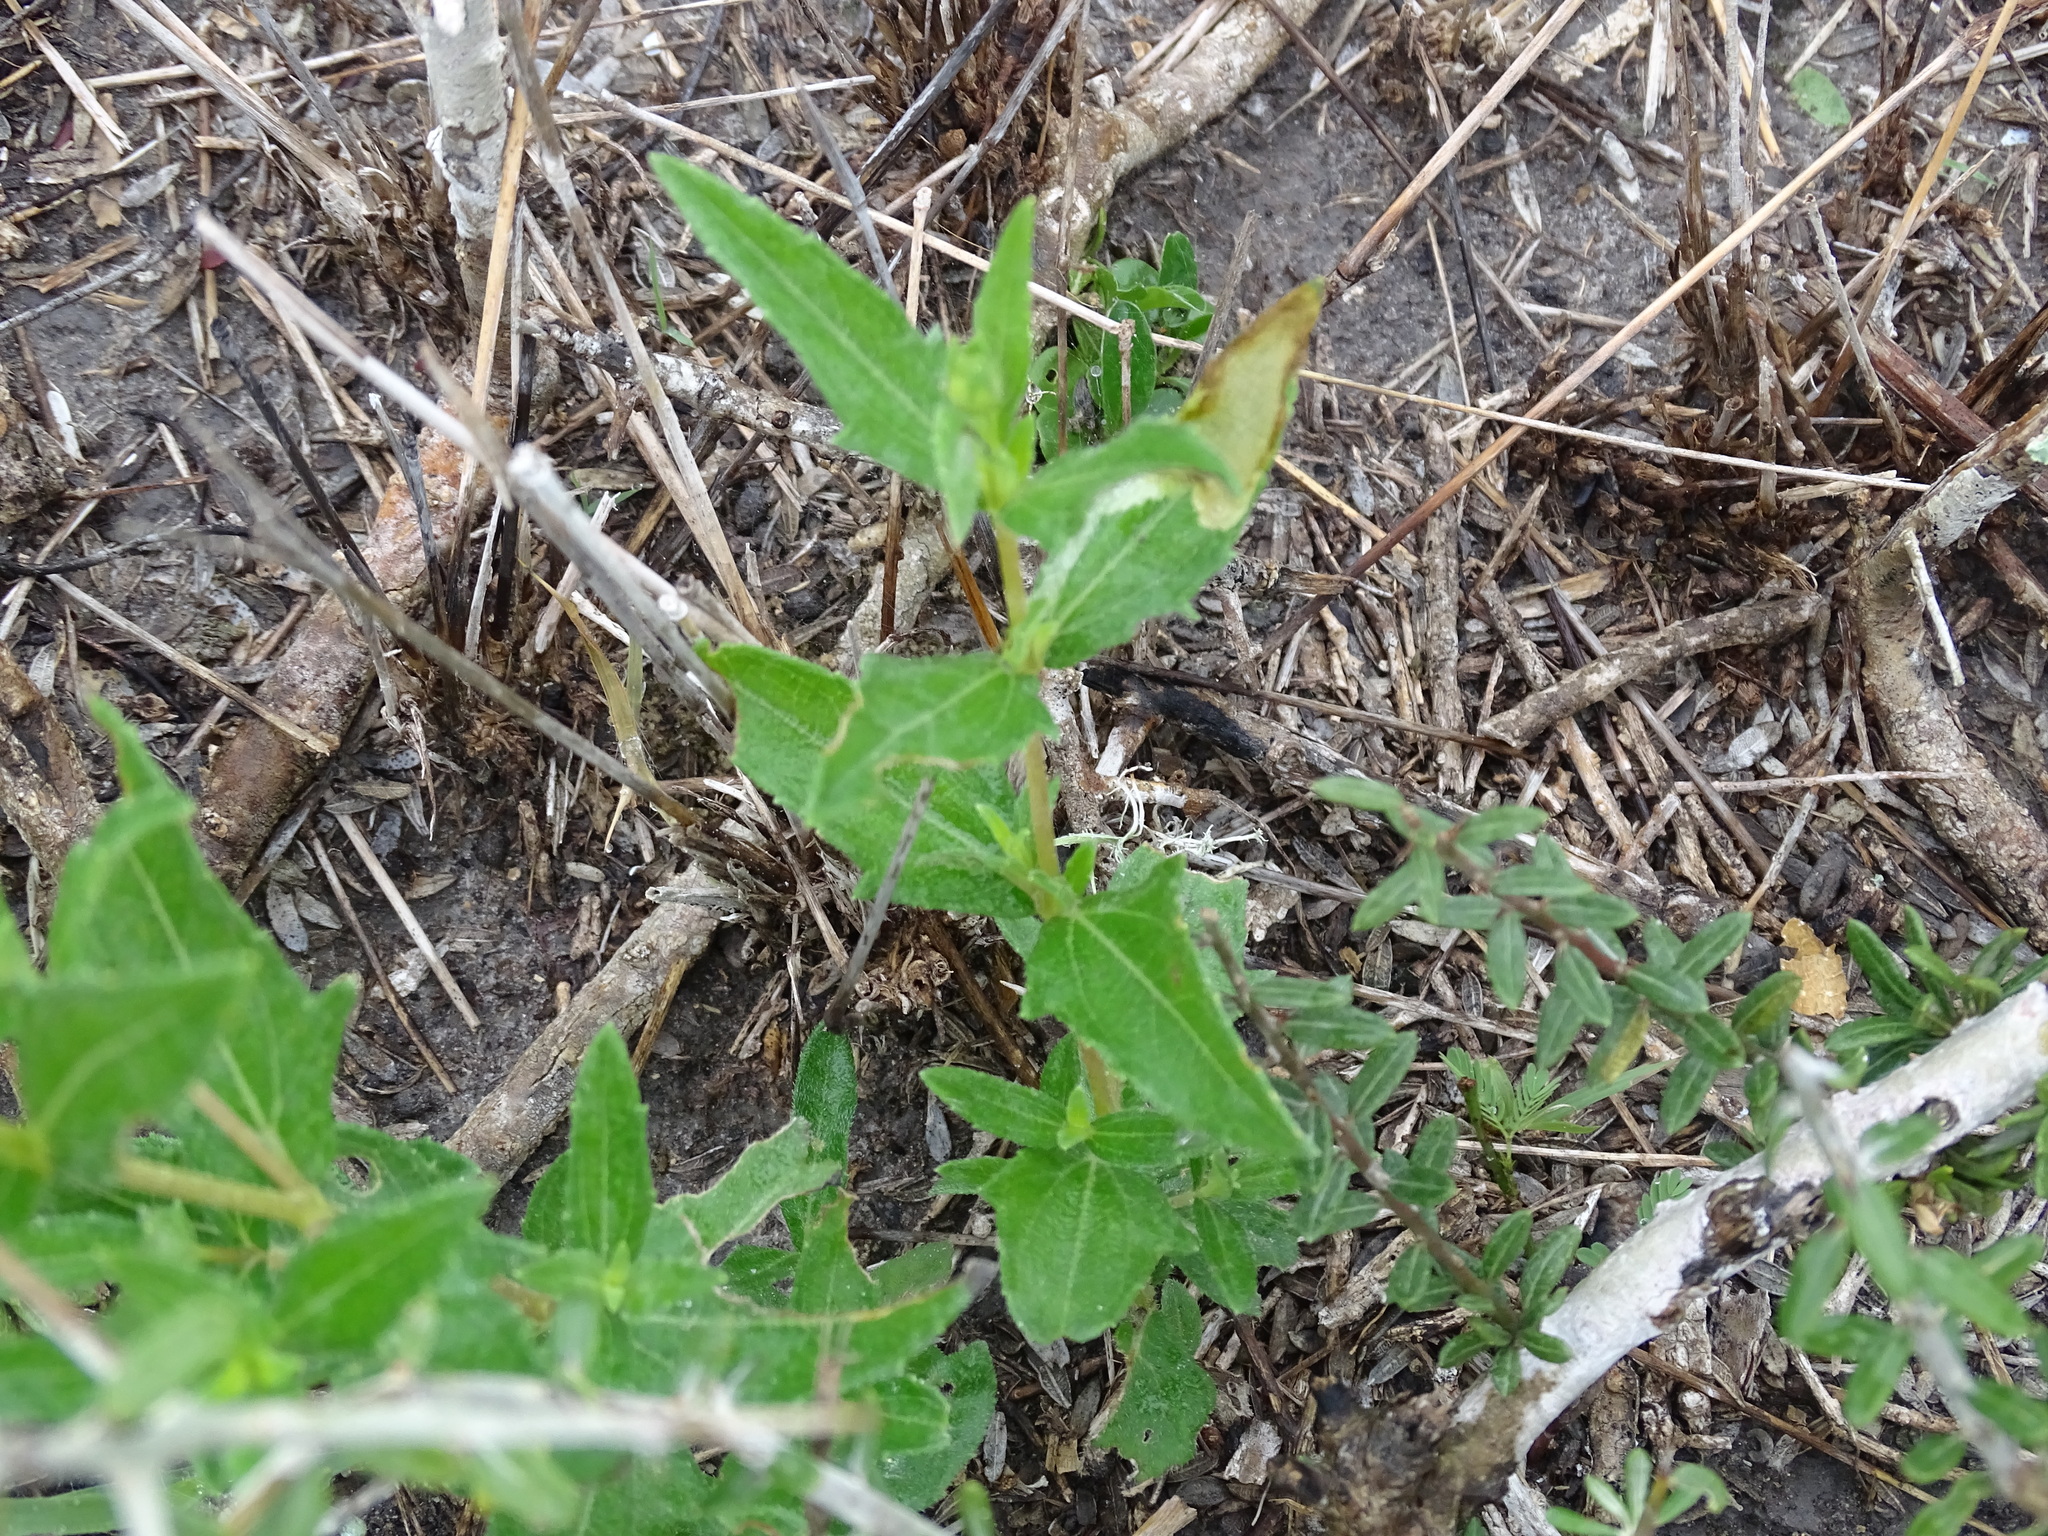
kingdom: Plantae
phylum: Tracheophyta
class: Magnoliopsida
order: Asterales
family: Asteraceae
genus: Wedelia
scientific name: Wedelia acapulcensis
